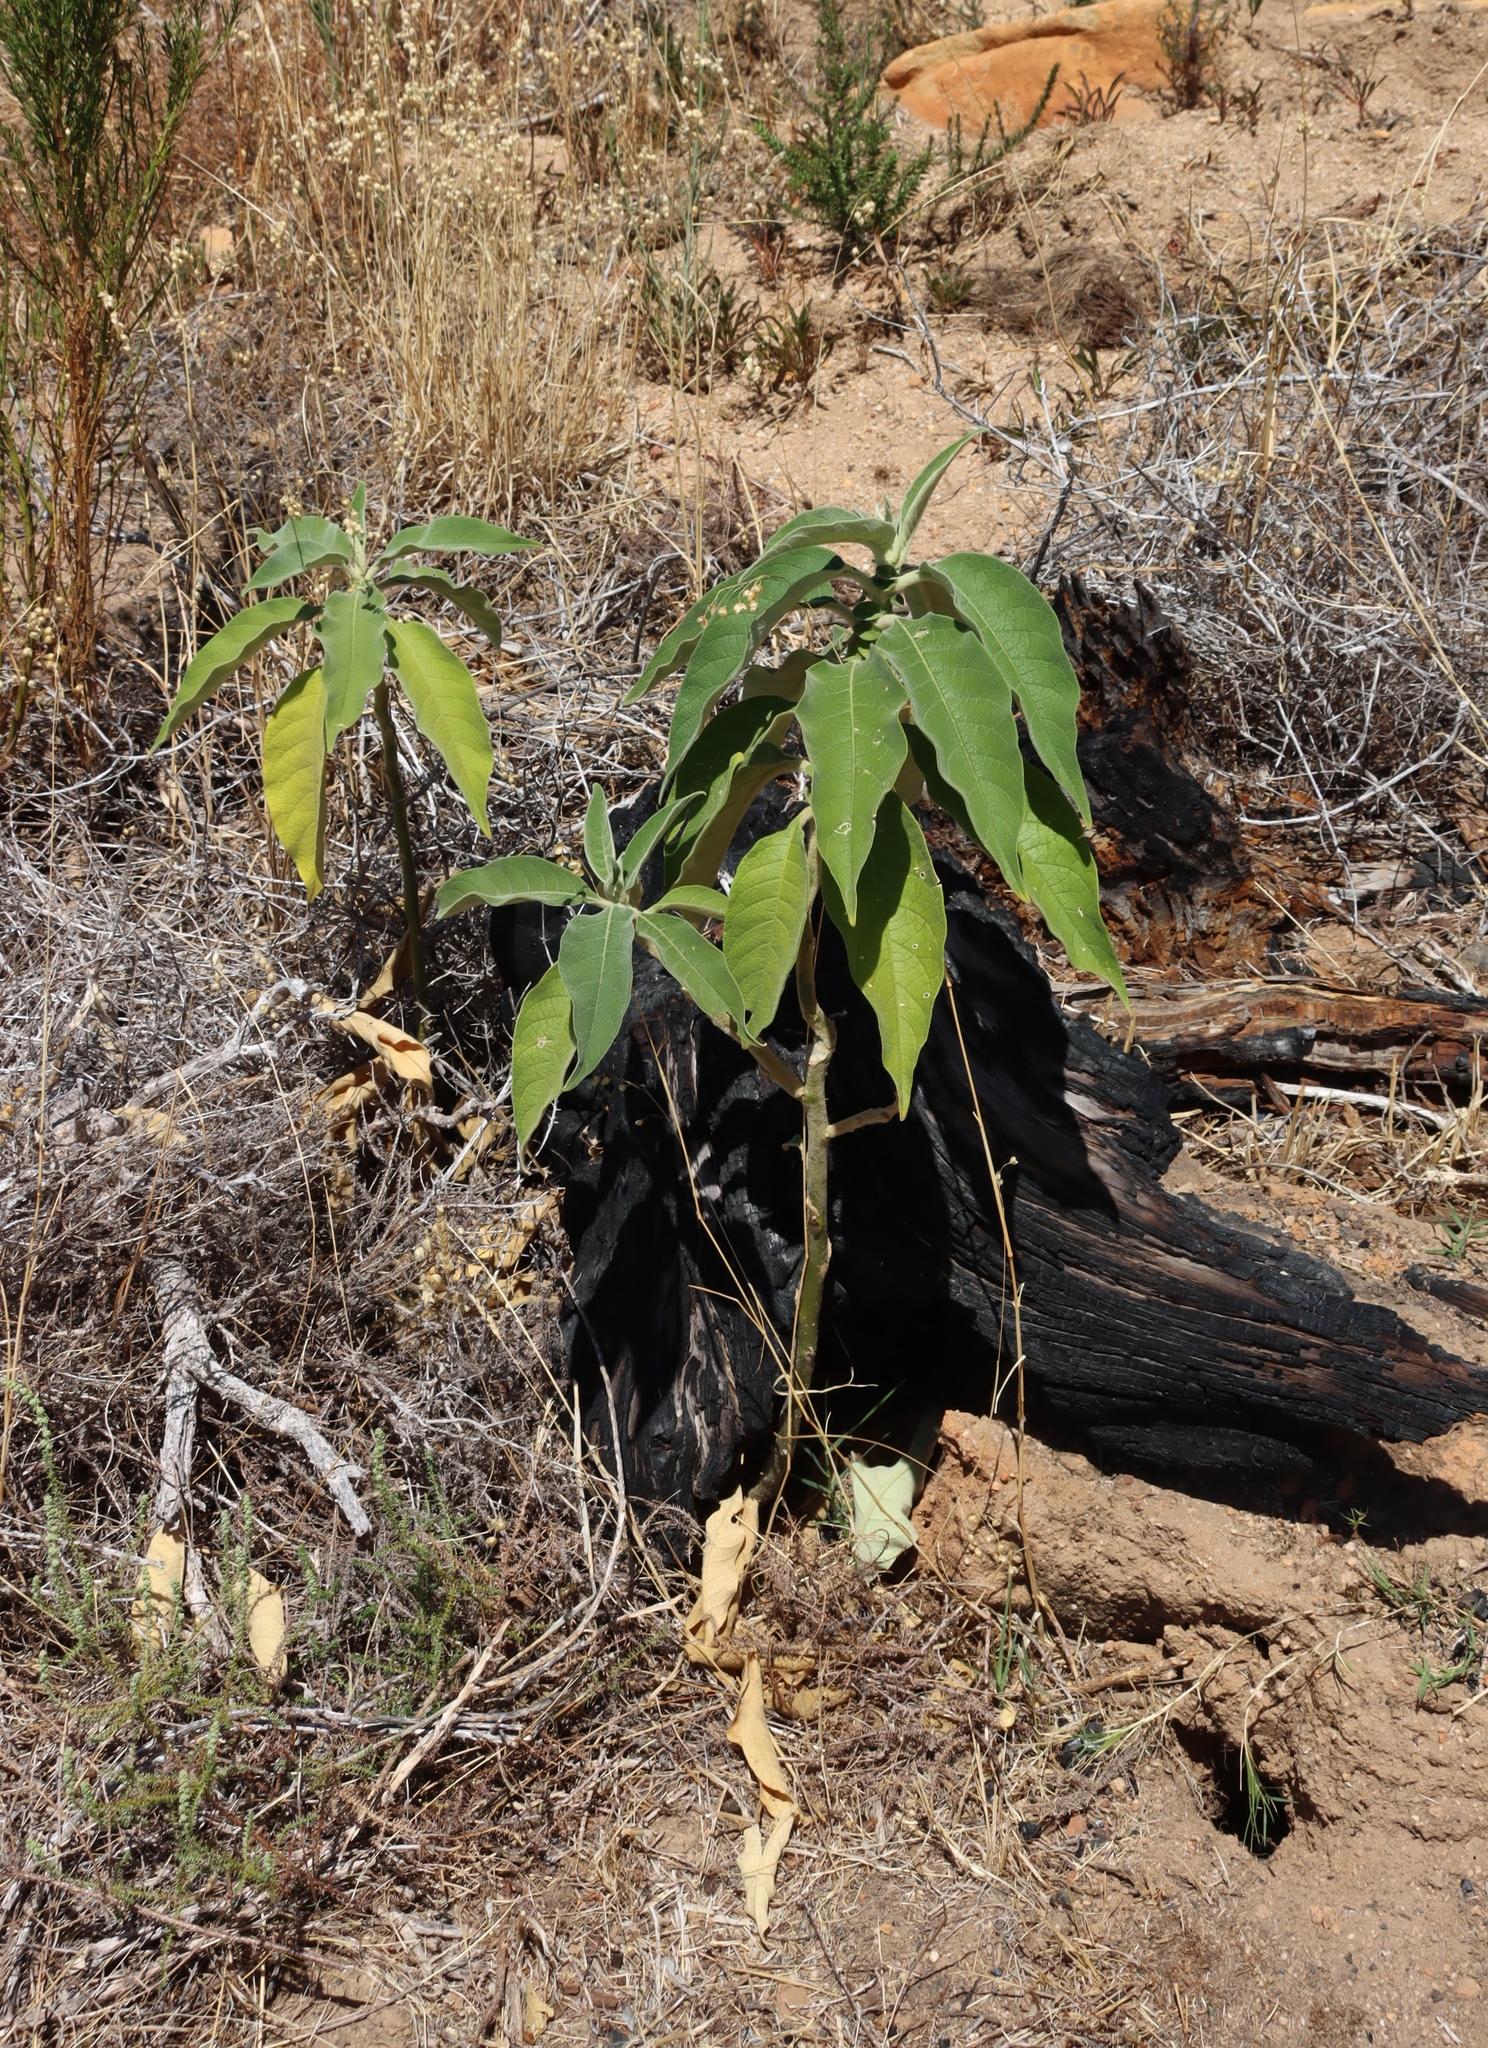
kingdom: Plantae
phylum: Tracheophyta
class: Magnoliopsida
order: Solanales
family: Solanaceae
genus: Solanum
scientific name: Solanum mauritianum
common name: Earleaf nightshade
